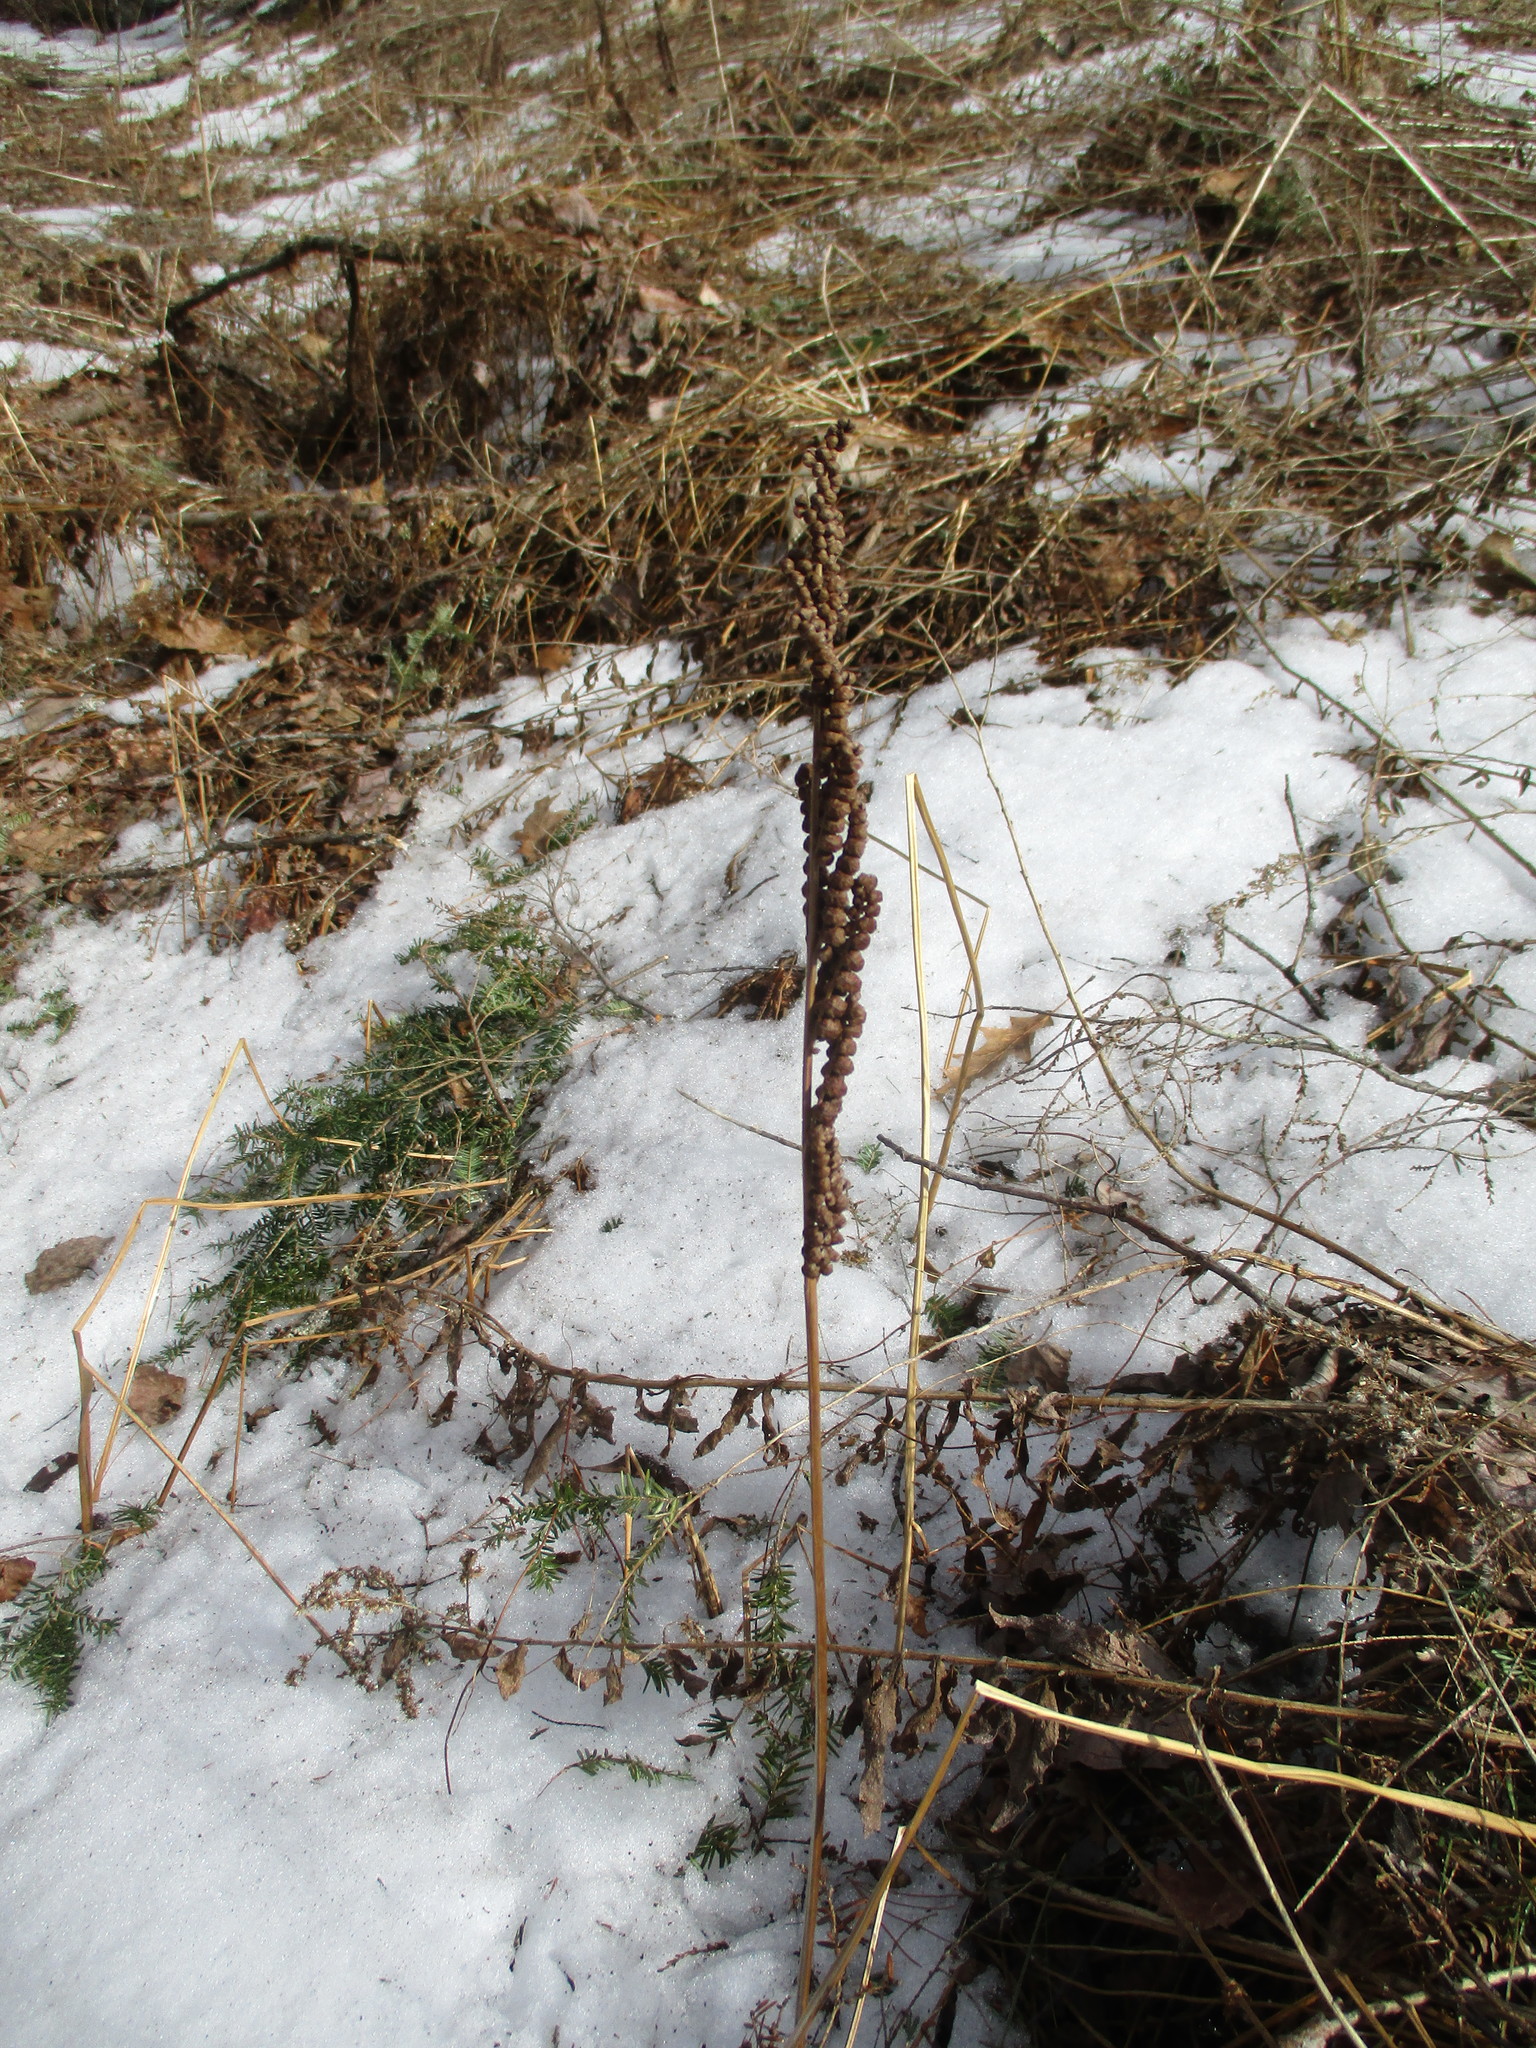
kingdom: Plantae
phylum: Tracheophyta
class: Polypodiopsida
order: Polypodiales
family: Onocleaceae
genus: Onoclea
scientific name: Onoclea sensibilis
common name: Sensitive fern
